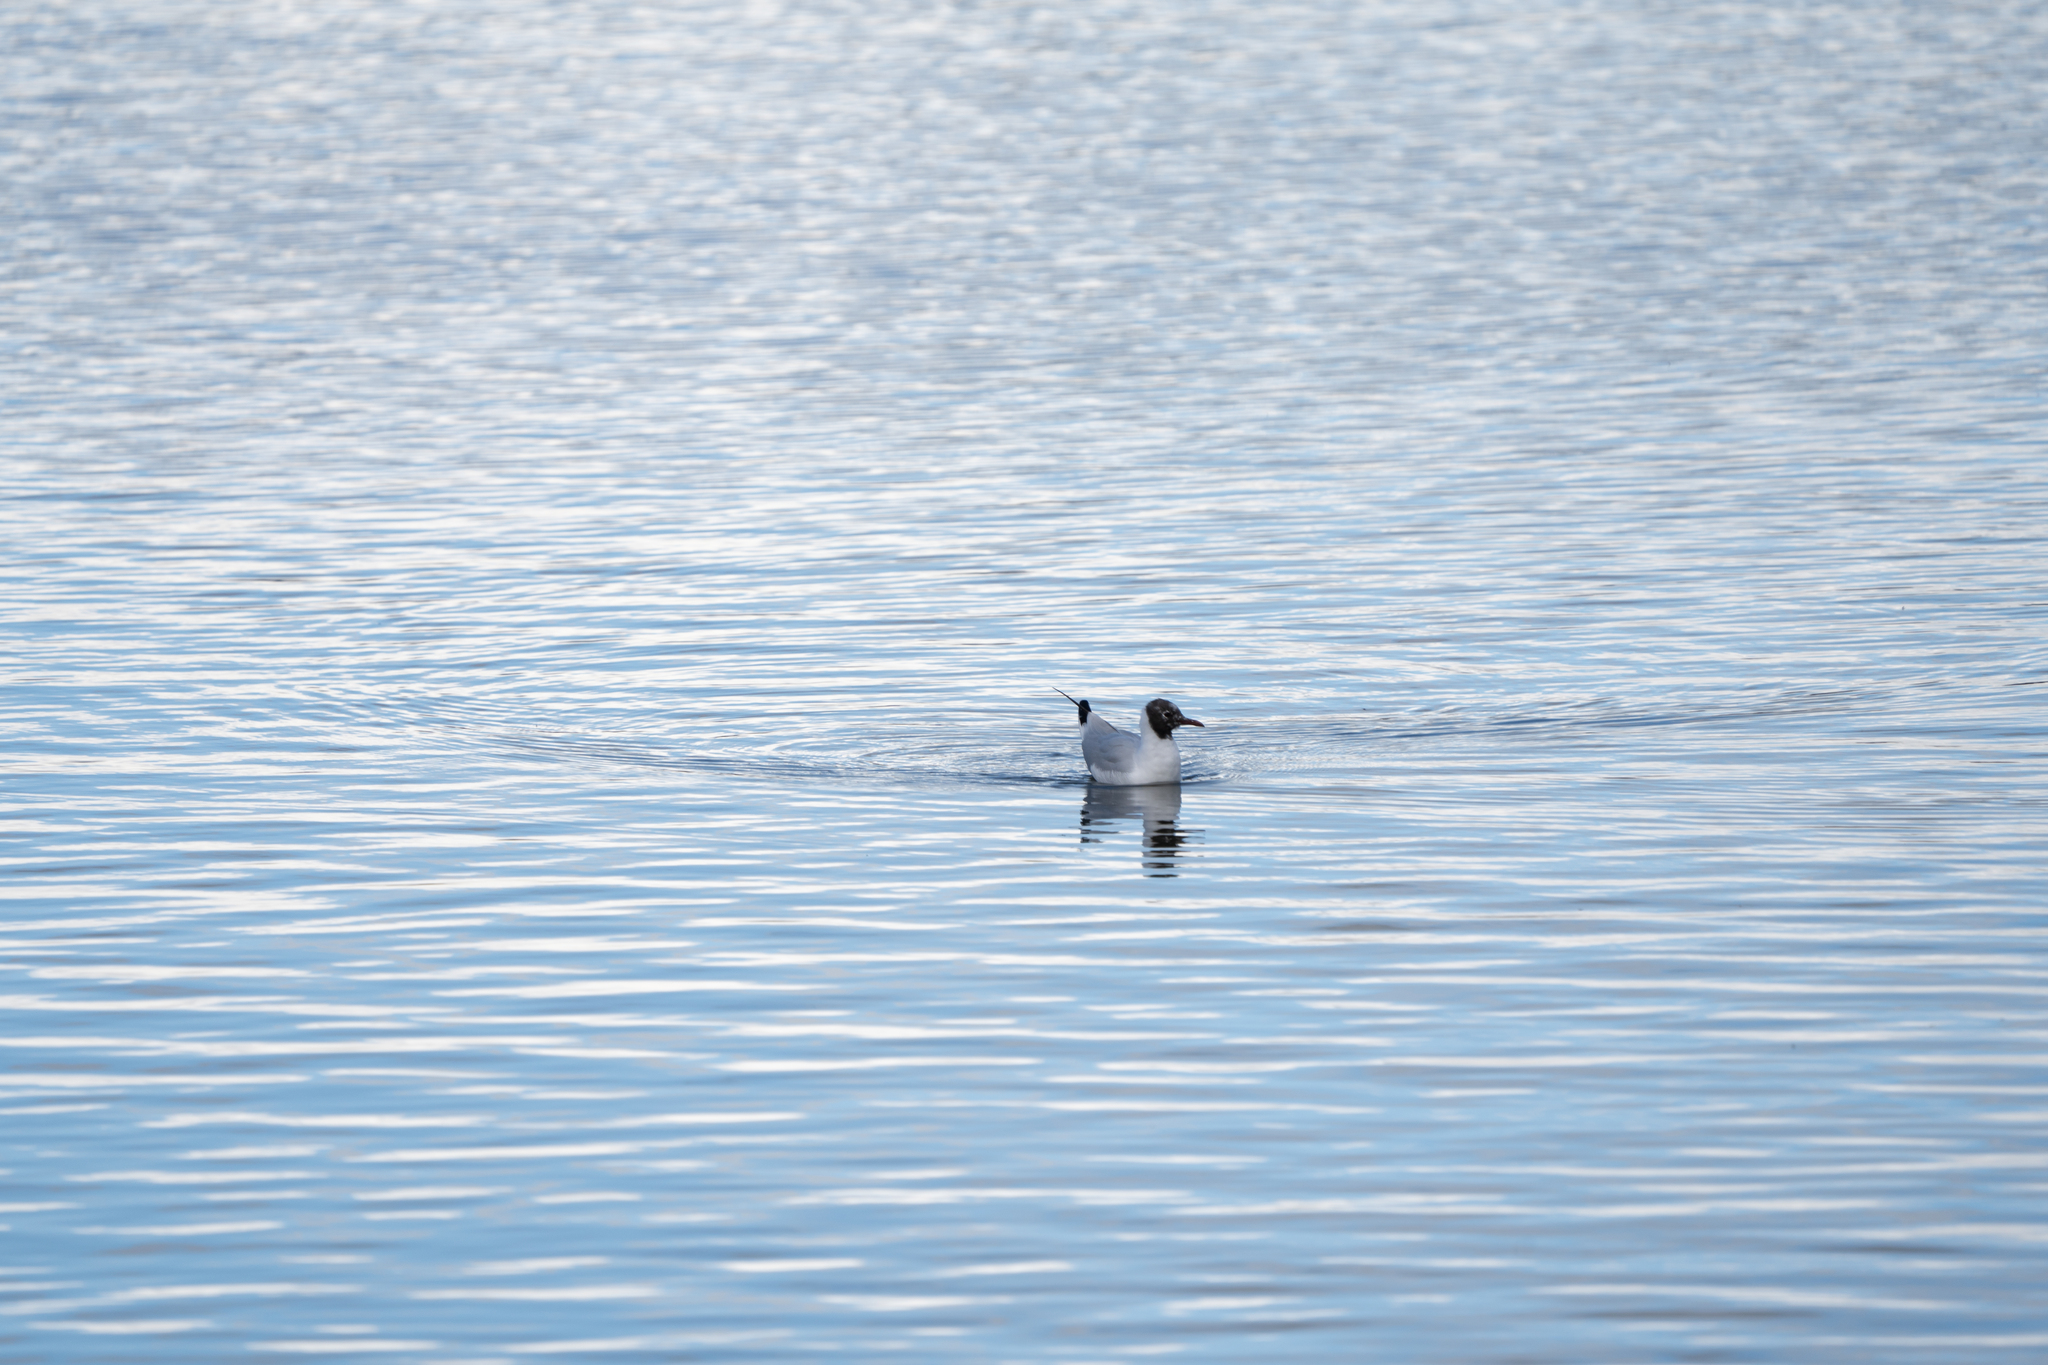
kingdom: Animalia
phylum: Chordata
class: Aves
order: Charadriiformes
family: Laridae
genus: Chroicocephalus
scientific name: Chroicocephalus ridibundus
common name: Black-headed gull
